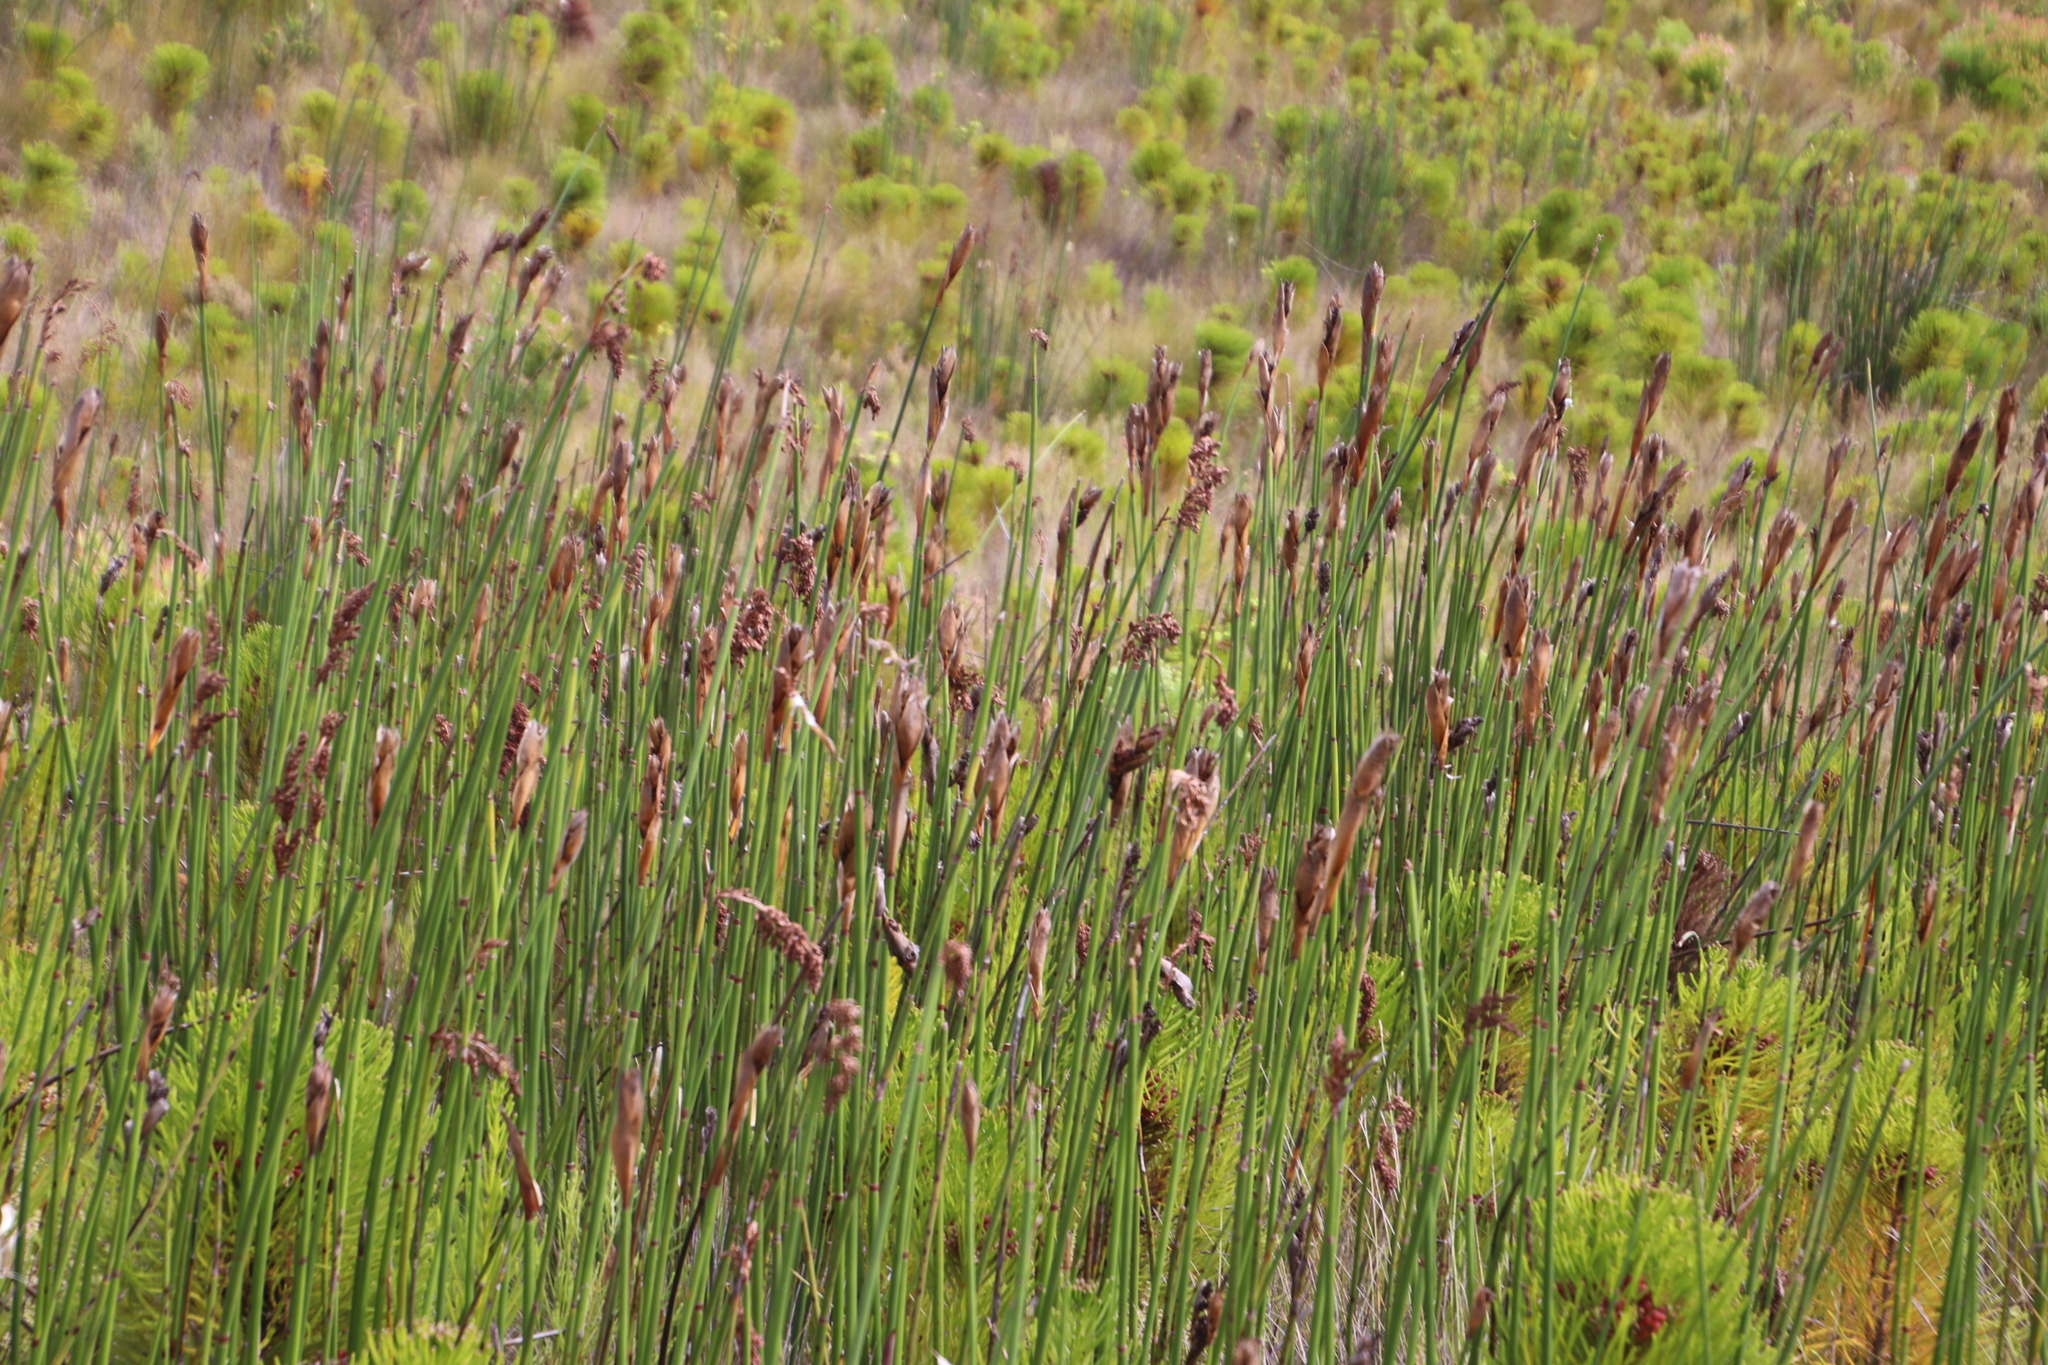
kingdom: Plantae
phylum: Tracheophyta
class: Liliopsida
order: Poales
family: Restionaceae
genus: Elegia
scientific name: Elegia mucronata
